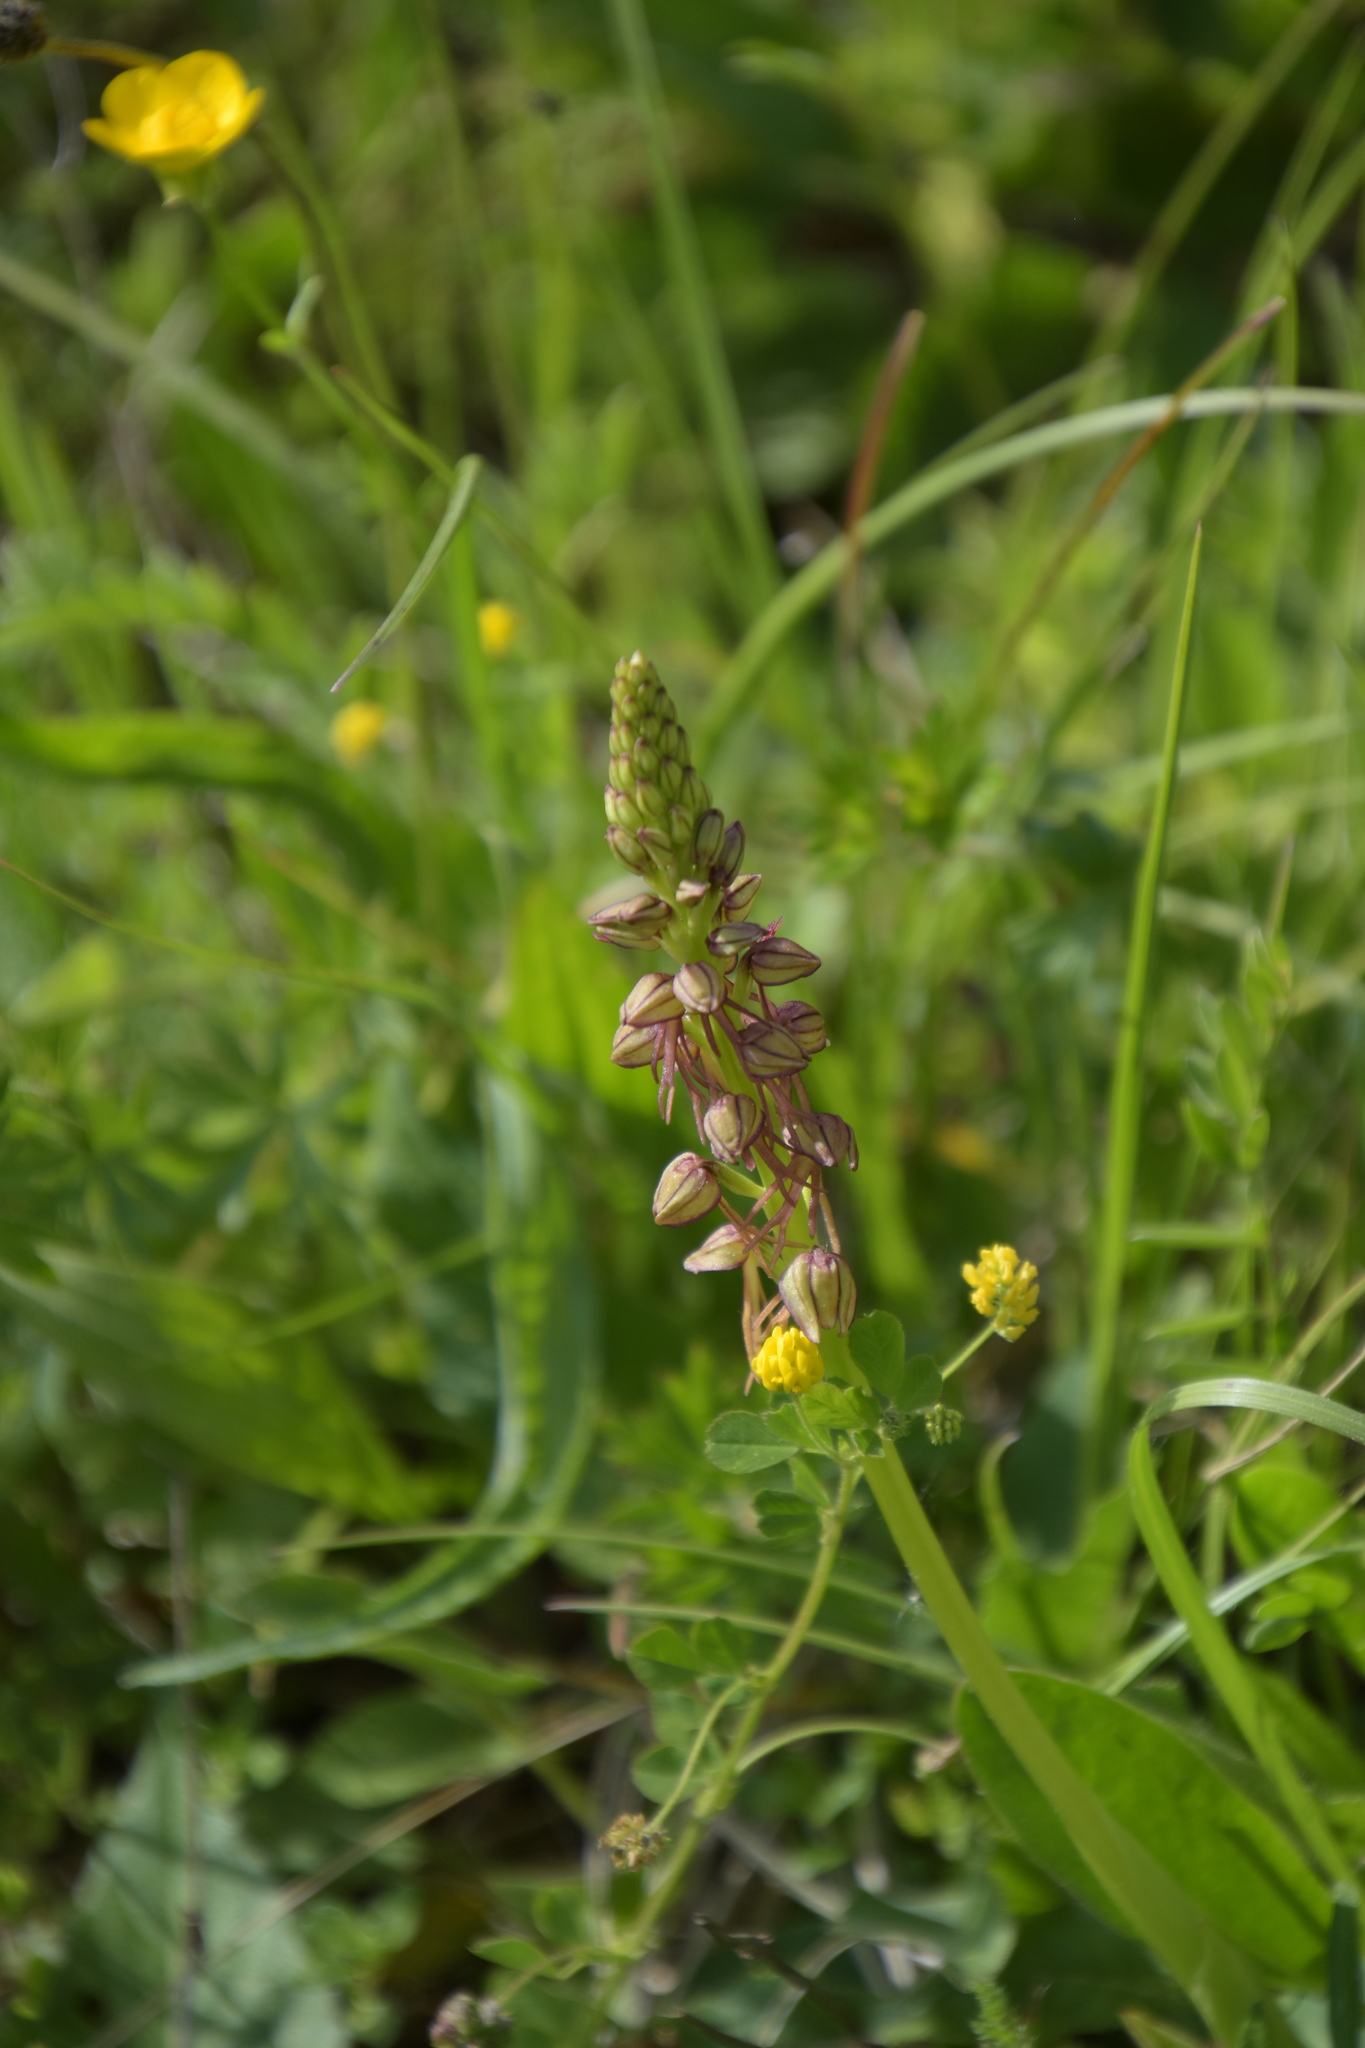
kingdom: Plantae
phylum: Tracheophyta
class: Liliopsida
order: Asparagales
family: Orchidaceae
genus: Orchis
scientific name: Orchis anthropophora
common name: Man orchid
